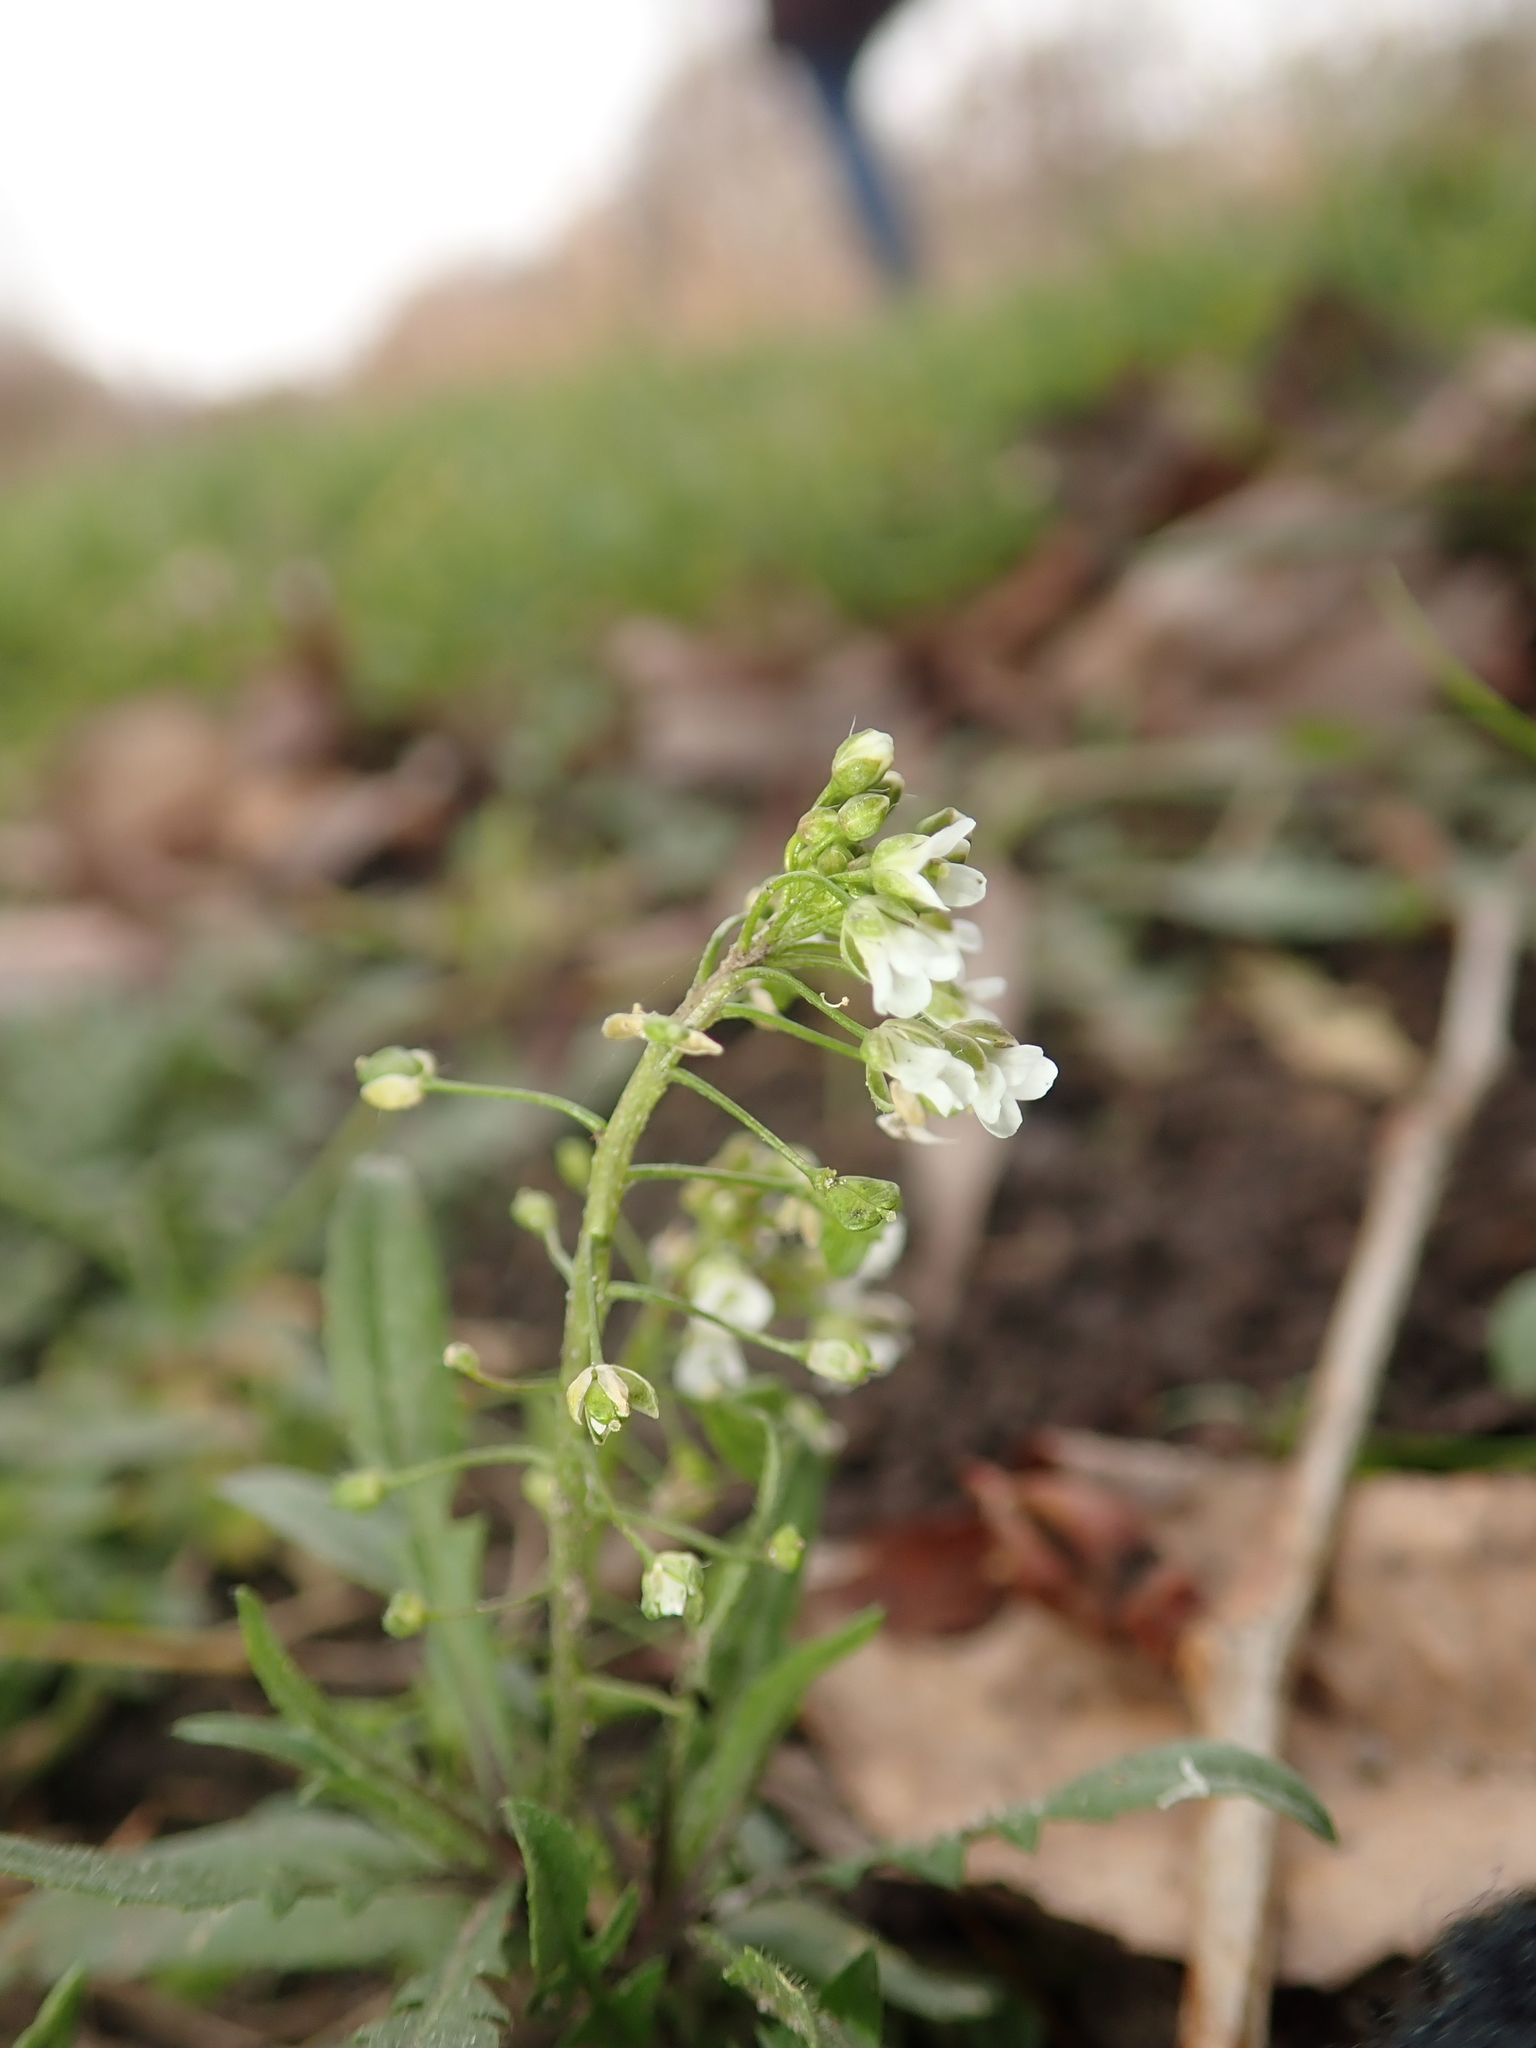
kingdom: Plantae
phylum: Tracheophyta
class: Magnoliopsida
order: Brassicales
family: Brassicaceae
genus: Capsella
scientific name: Capsella bursa-pastoris
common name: Shepherd's purse
